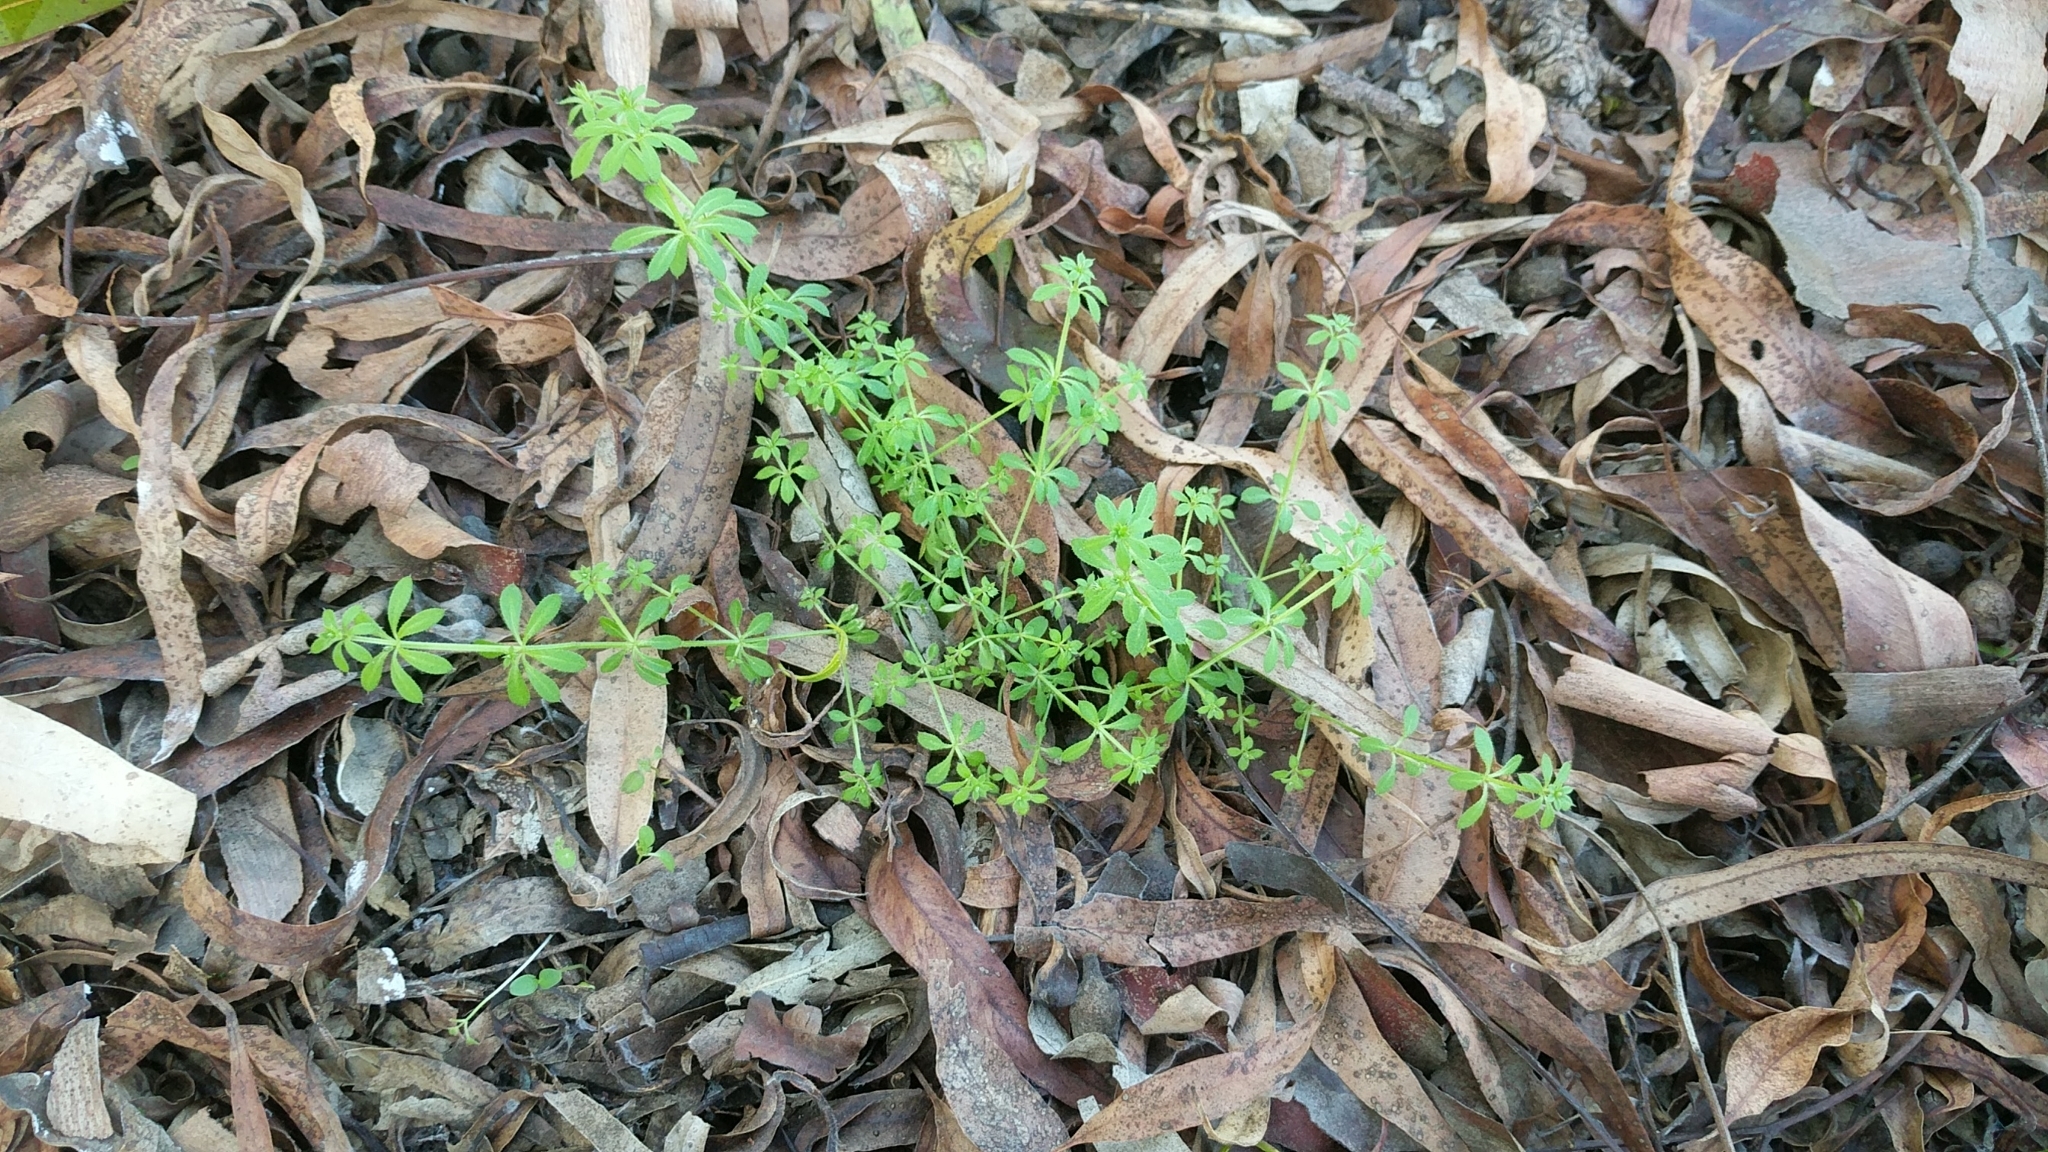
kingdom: Plantae
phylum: Tracheophyta
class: Magnoliopsida
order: Gentianales
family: Rubiaceae
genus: Galium
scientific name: Galium aparine
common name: Cleavers
